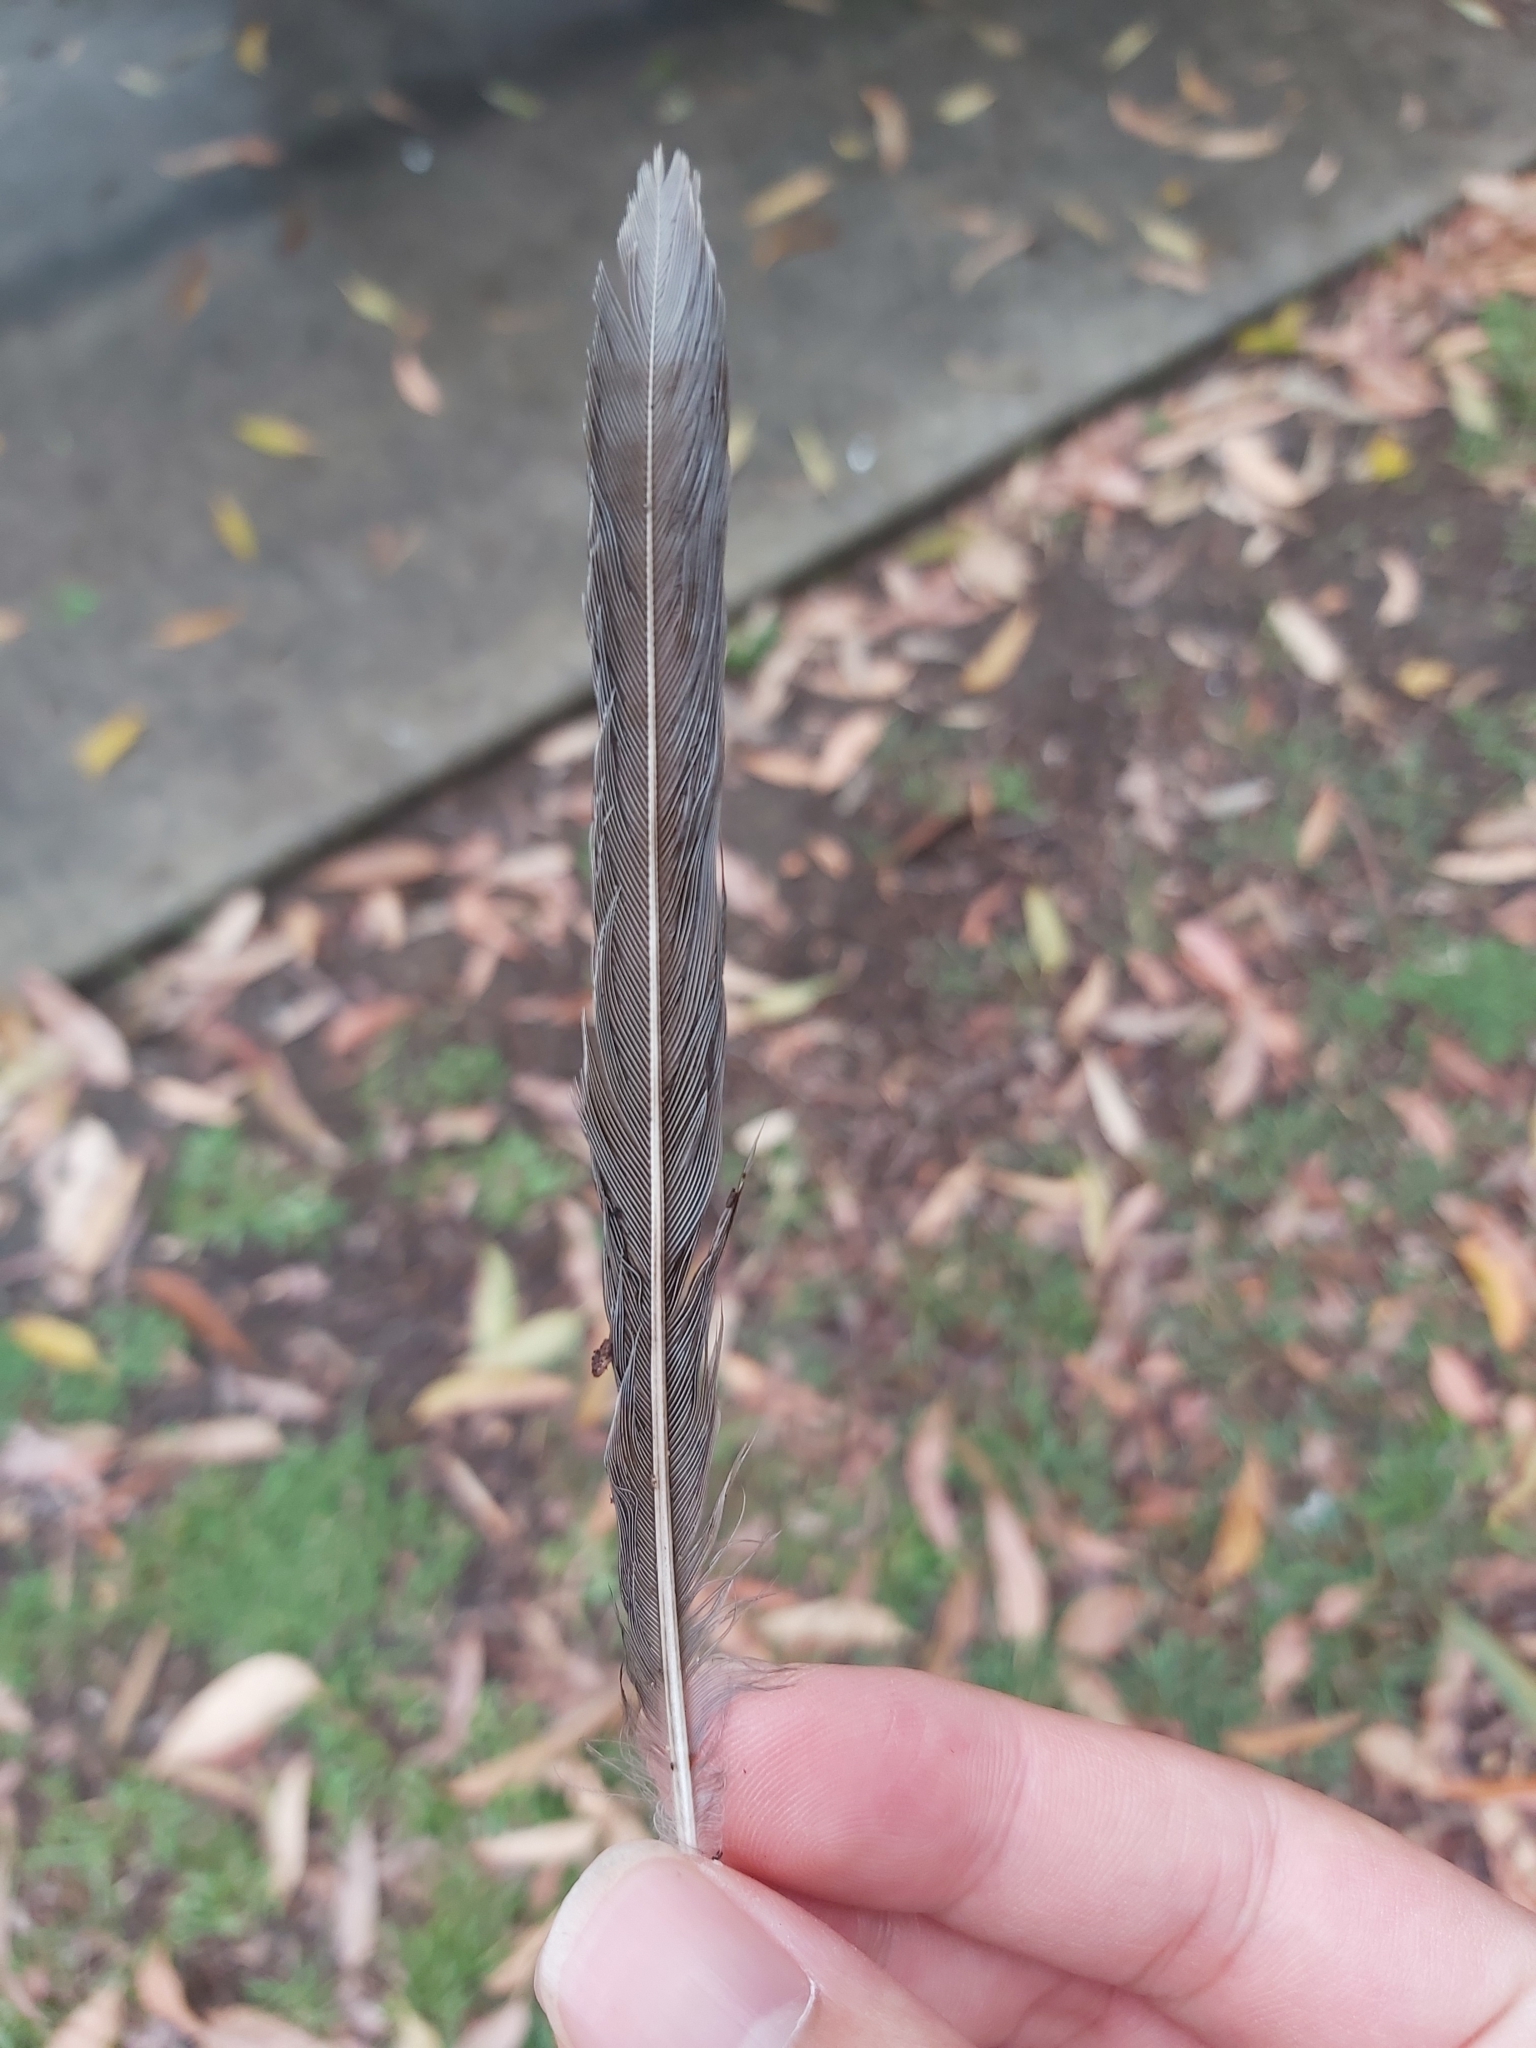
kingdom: Animalia
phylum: Chordata
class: Aves
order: Passeriformes
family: Meliphagidae
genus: Manorina
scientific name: Manorina melanocephala
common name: Noisy miner
